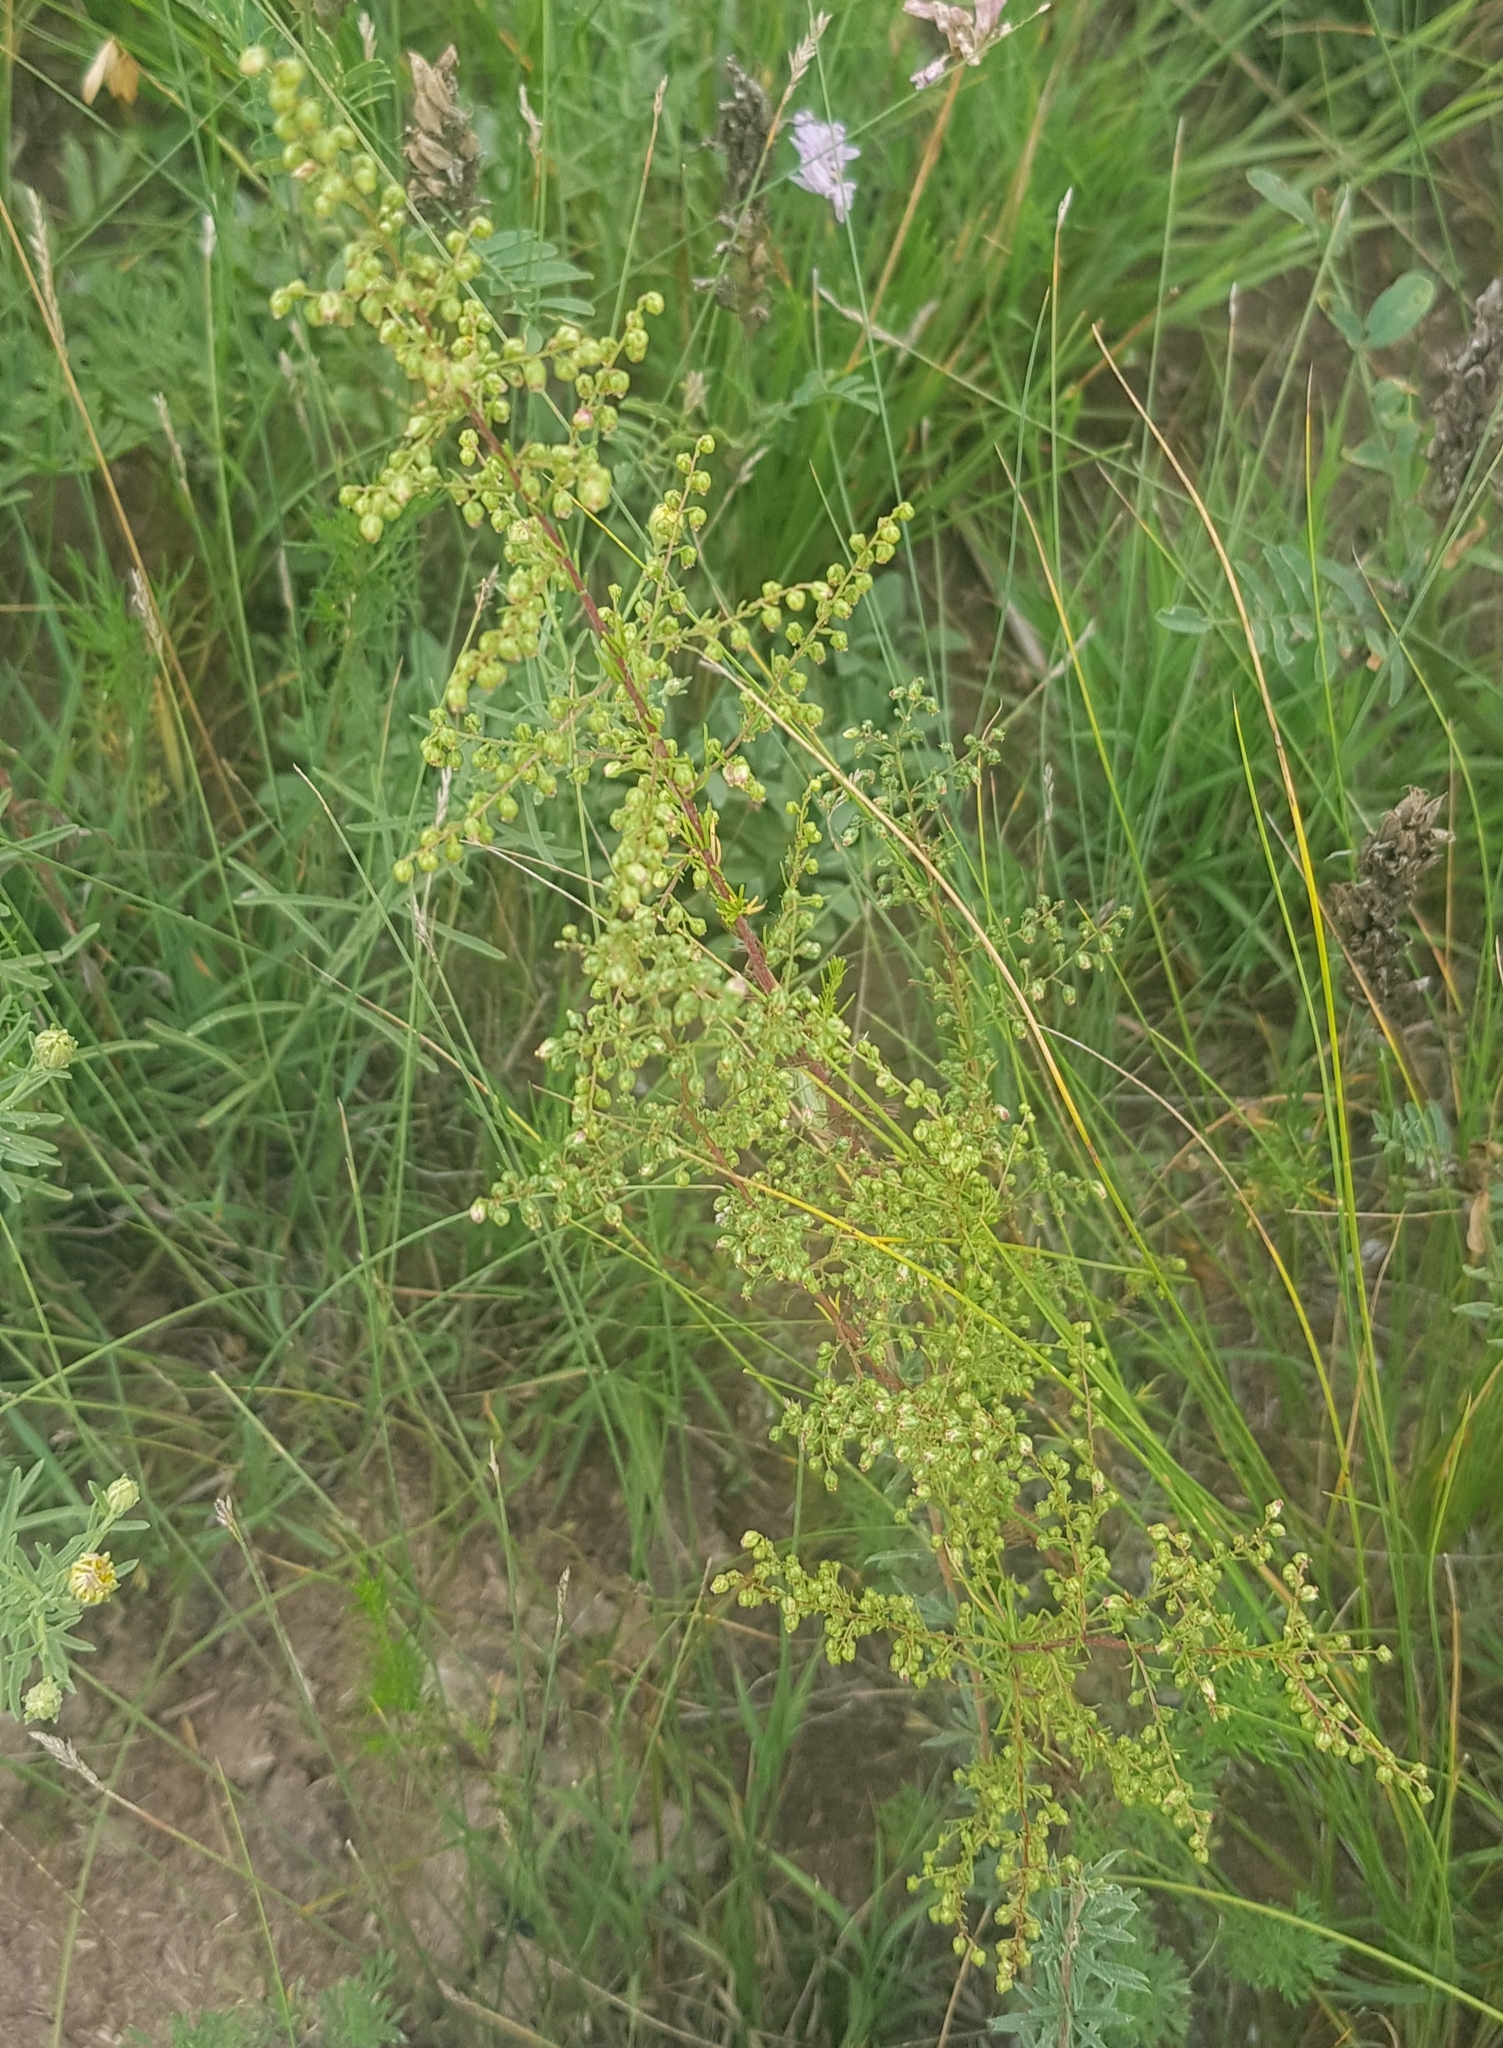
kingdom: Plantae
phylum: Tracheophyta
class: Magnoliopsida
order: Asterales
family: Asteraceae
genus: Artemisia
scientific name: Artemisia scoparia
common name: Redstem wormwood
